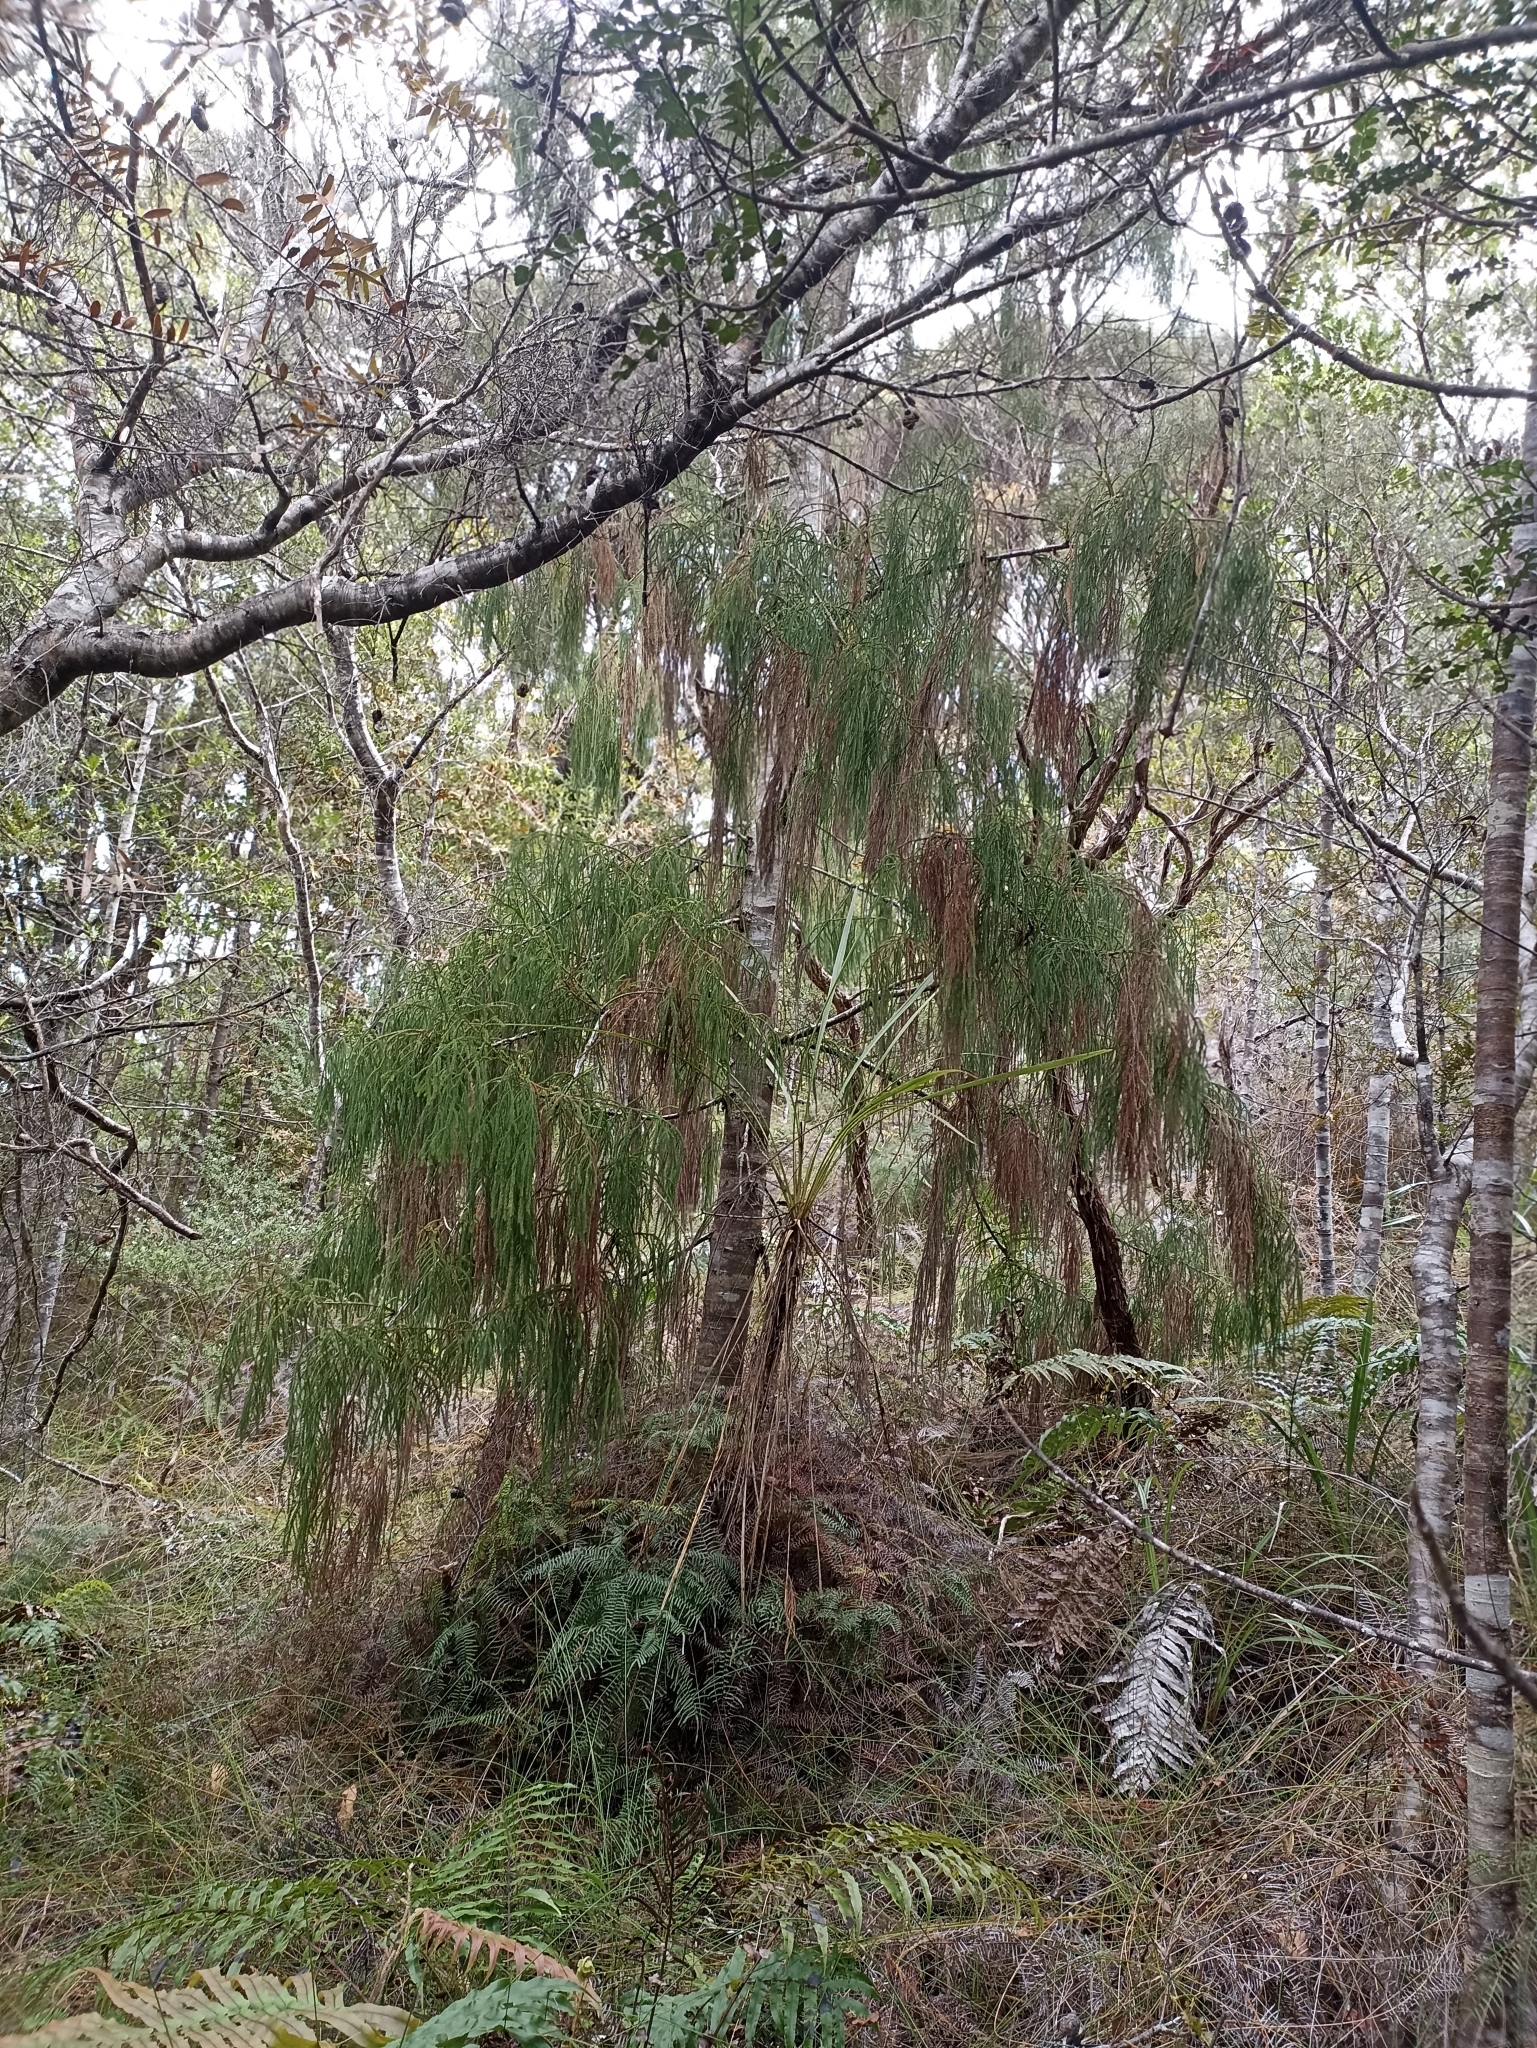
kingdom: Plantae
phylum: Tracheophyta
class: Pinopsida
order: Pinales
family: Podocarpaceae
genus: Dacrydium
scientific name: Dacrydium cupressinum
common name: Red pine
